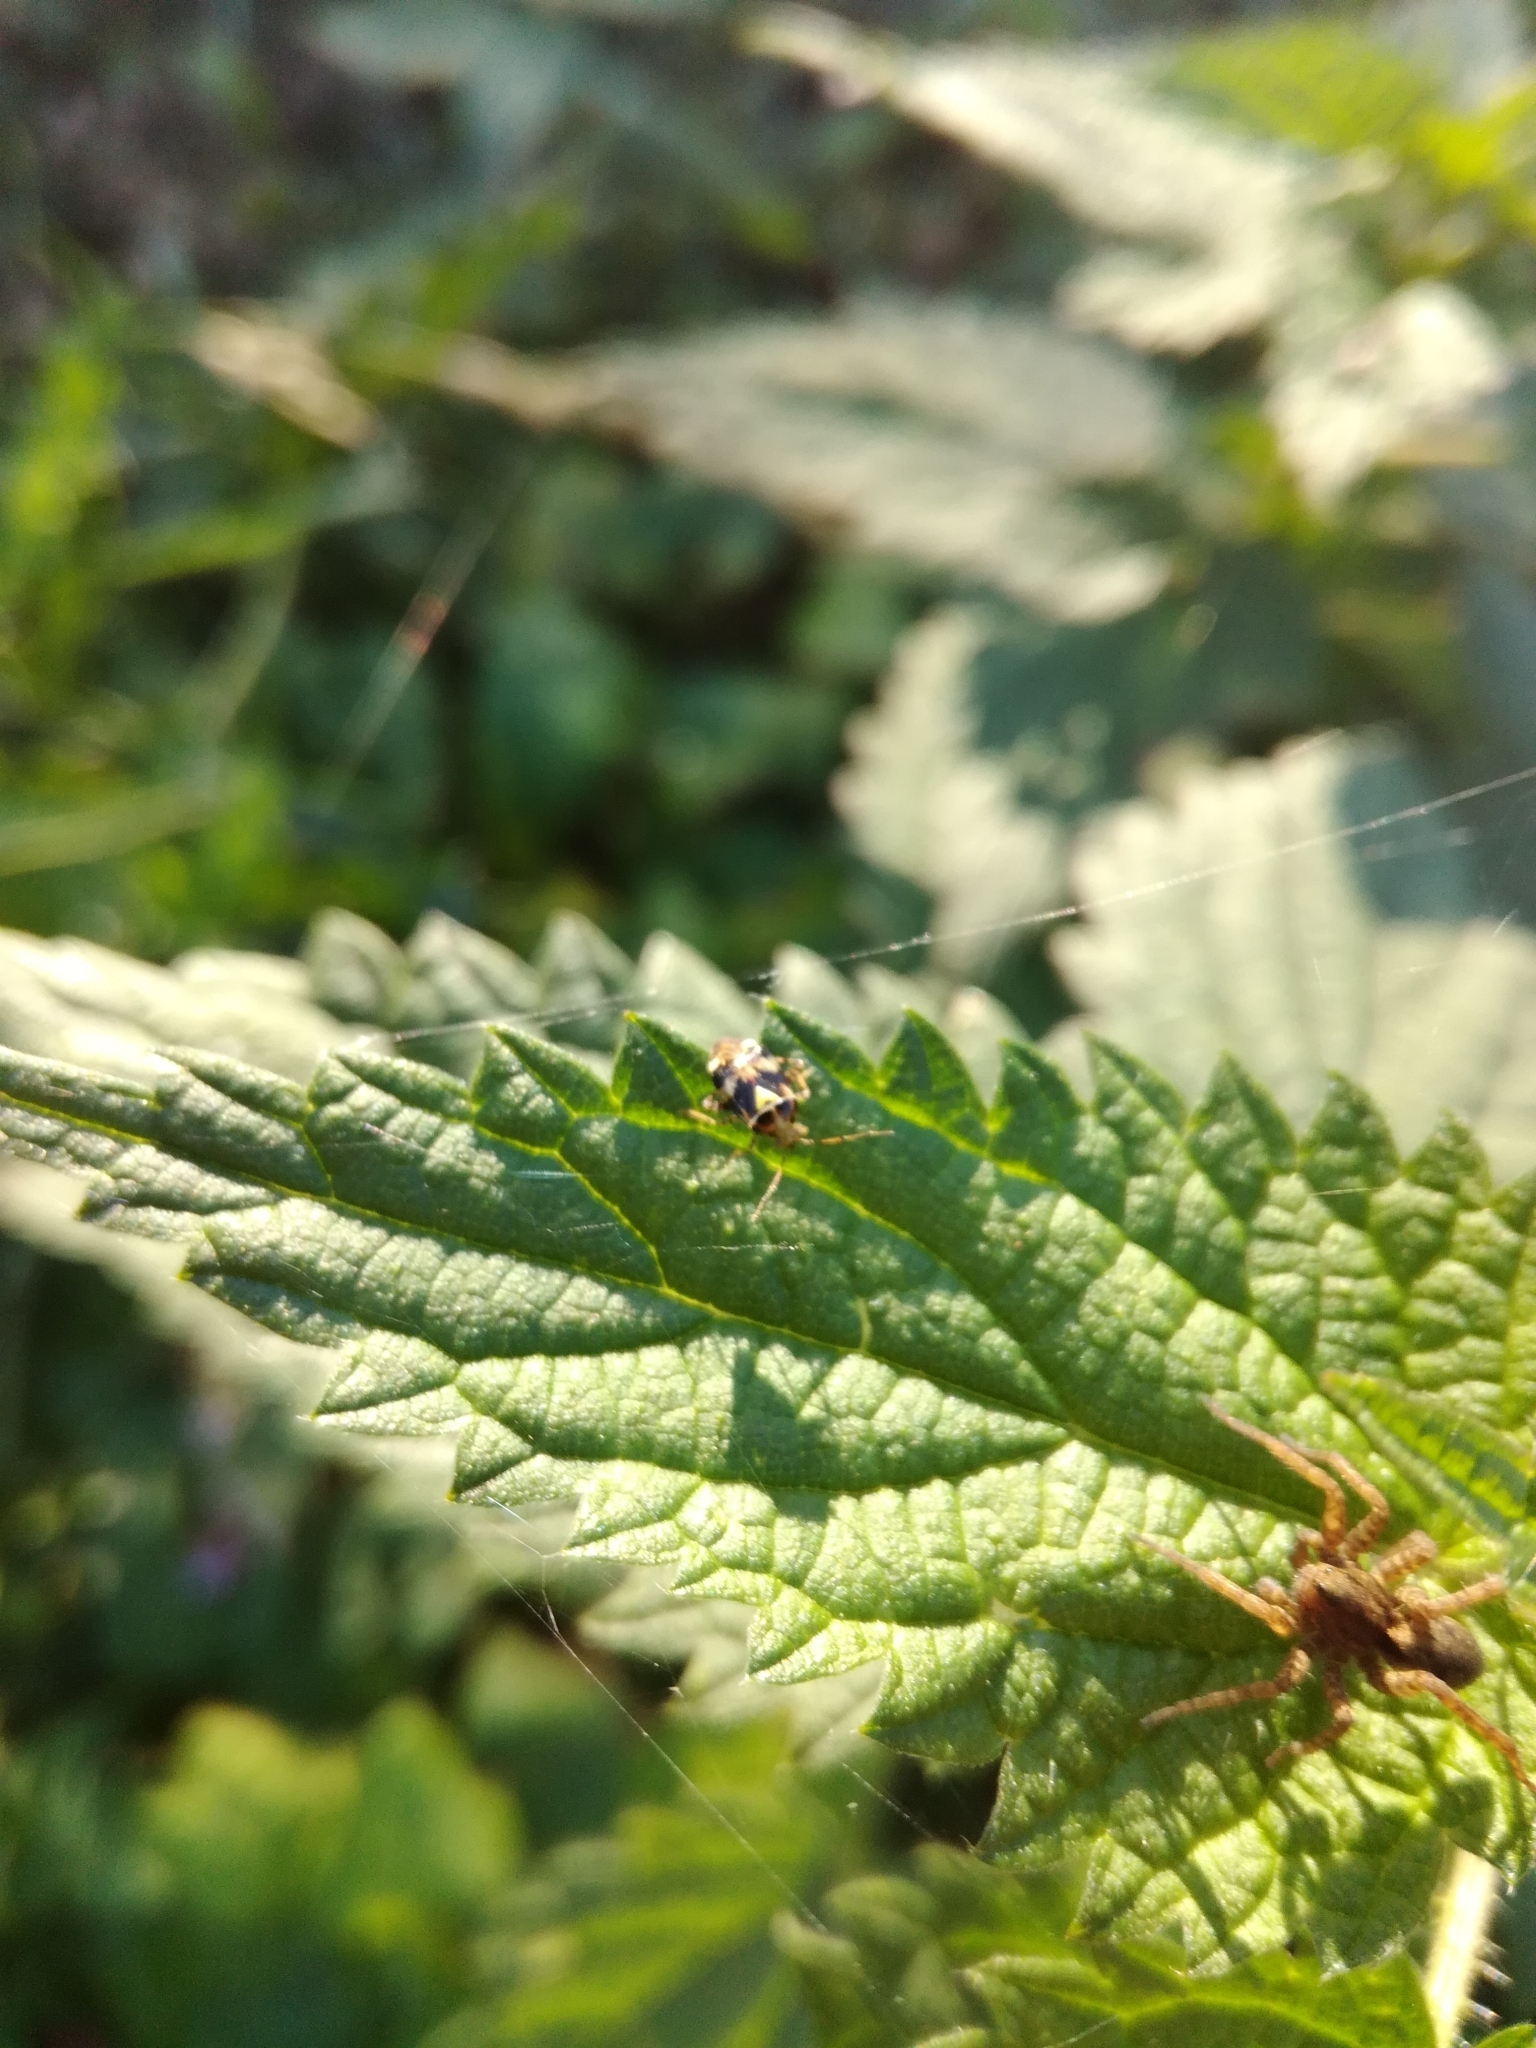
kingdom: Animalia
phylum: Arthropoda
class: Insecta
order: Hemiptera
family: Miridae
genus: Liocoris
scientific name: Liocoris tripustulatus
